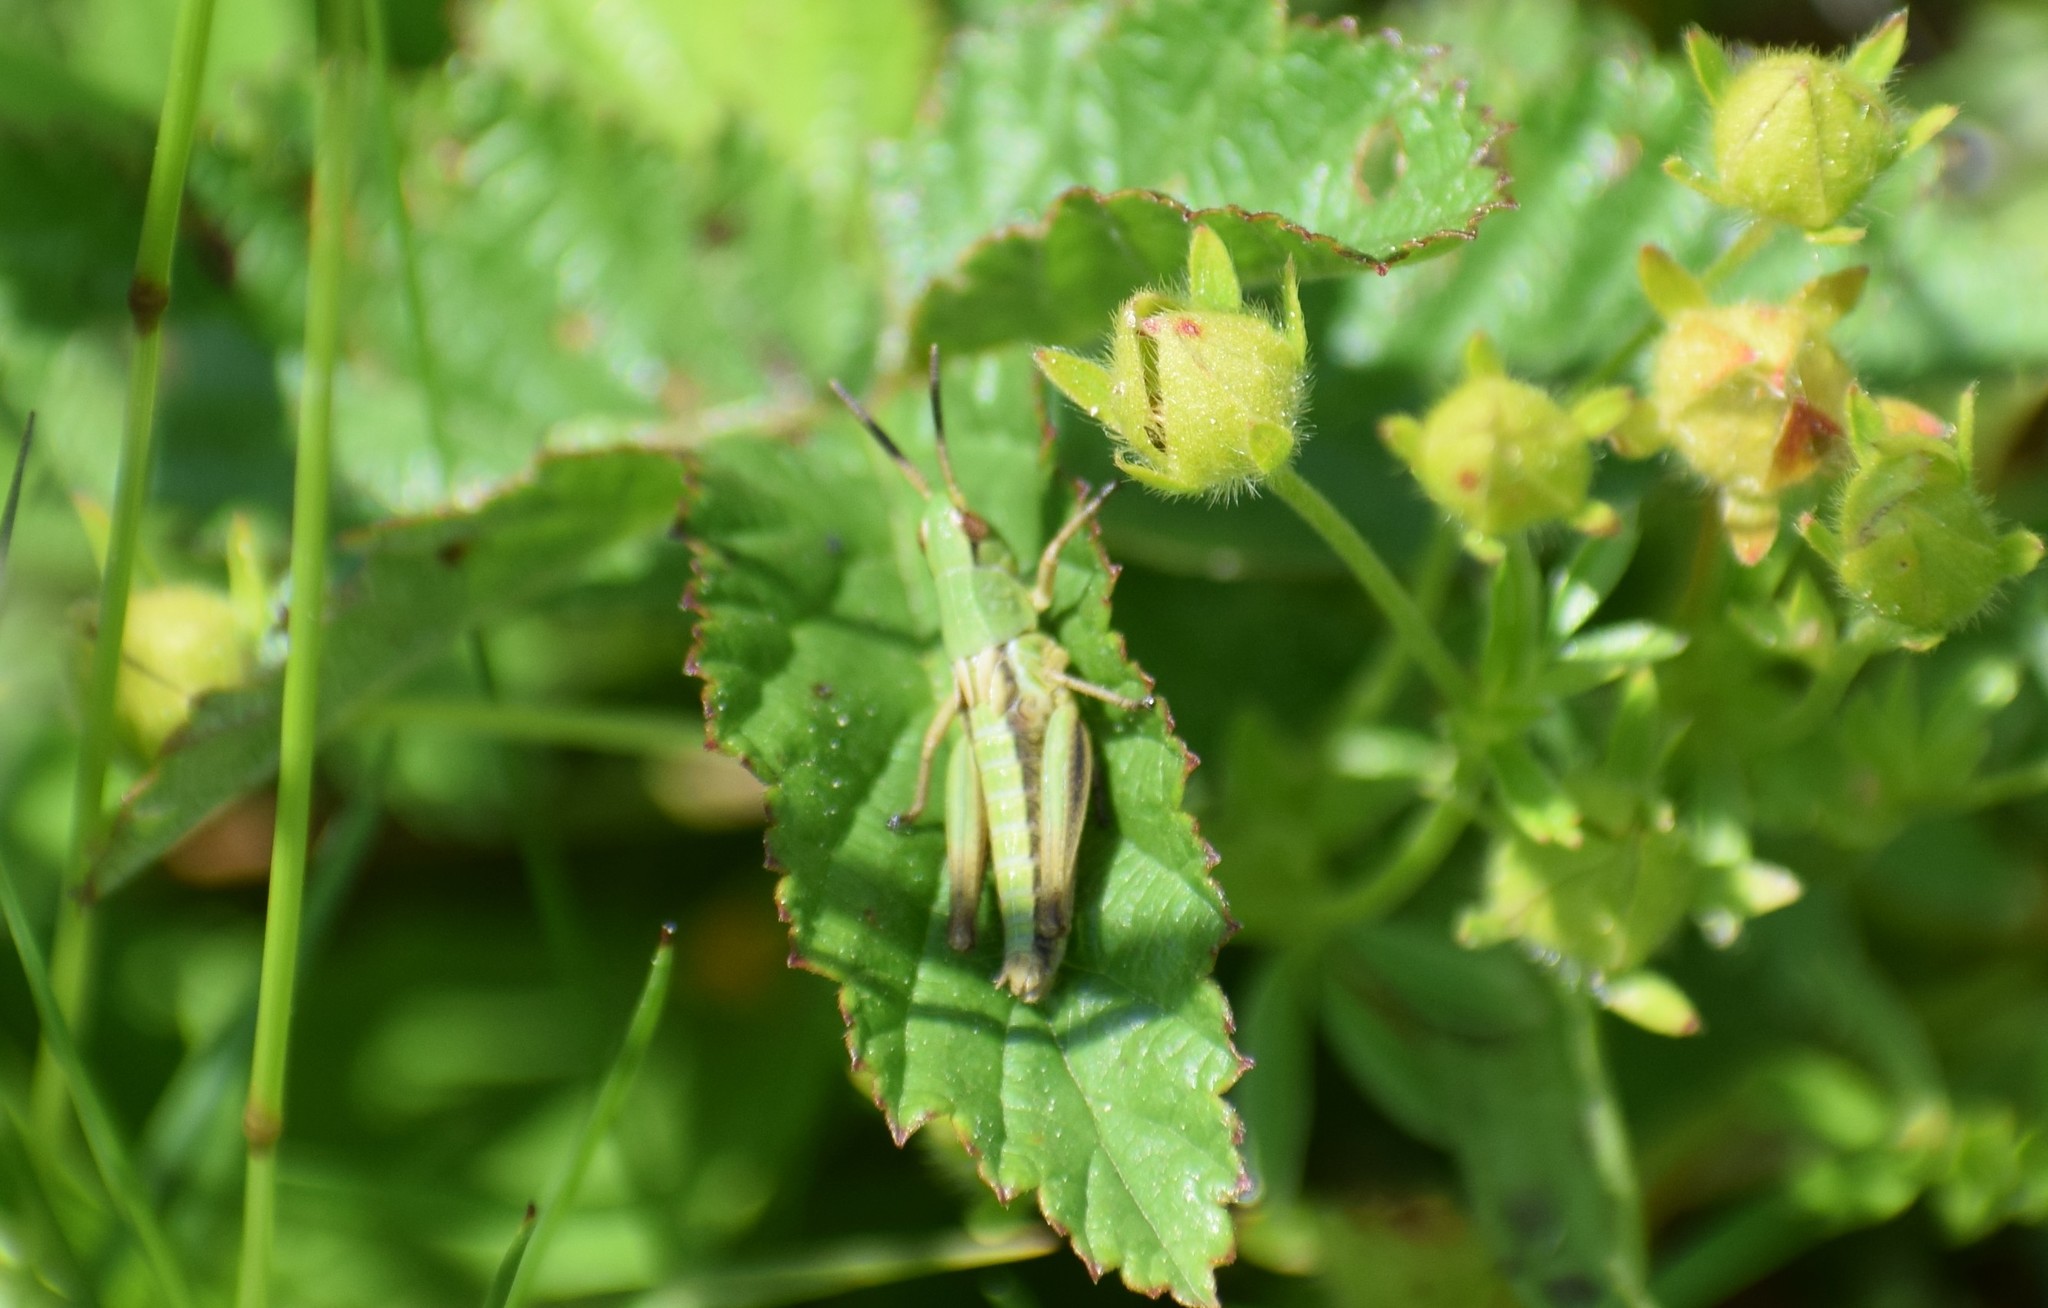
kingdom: Animalia
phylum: Arthropoda
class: Insecta
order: Orthoptera
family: Acrididae
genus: Pseudochorthippus
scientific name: Pseudochorthippus parallelus
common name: Meadow grasshopper
